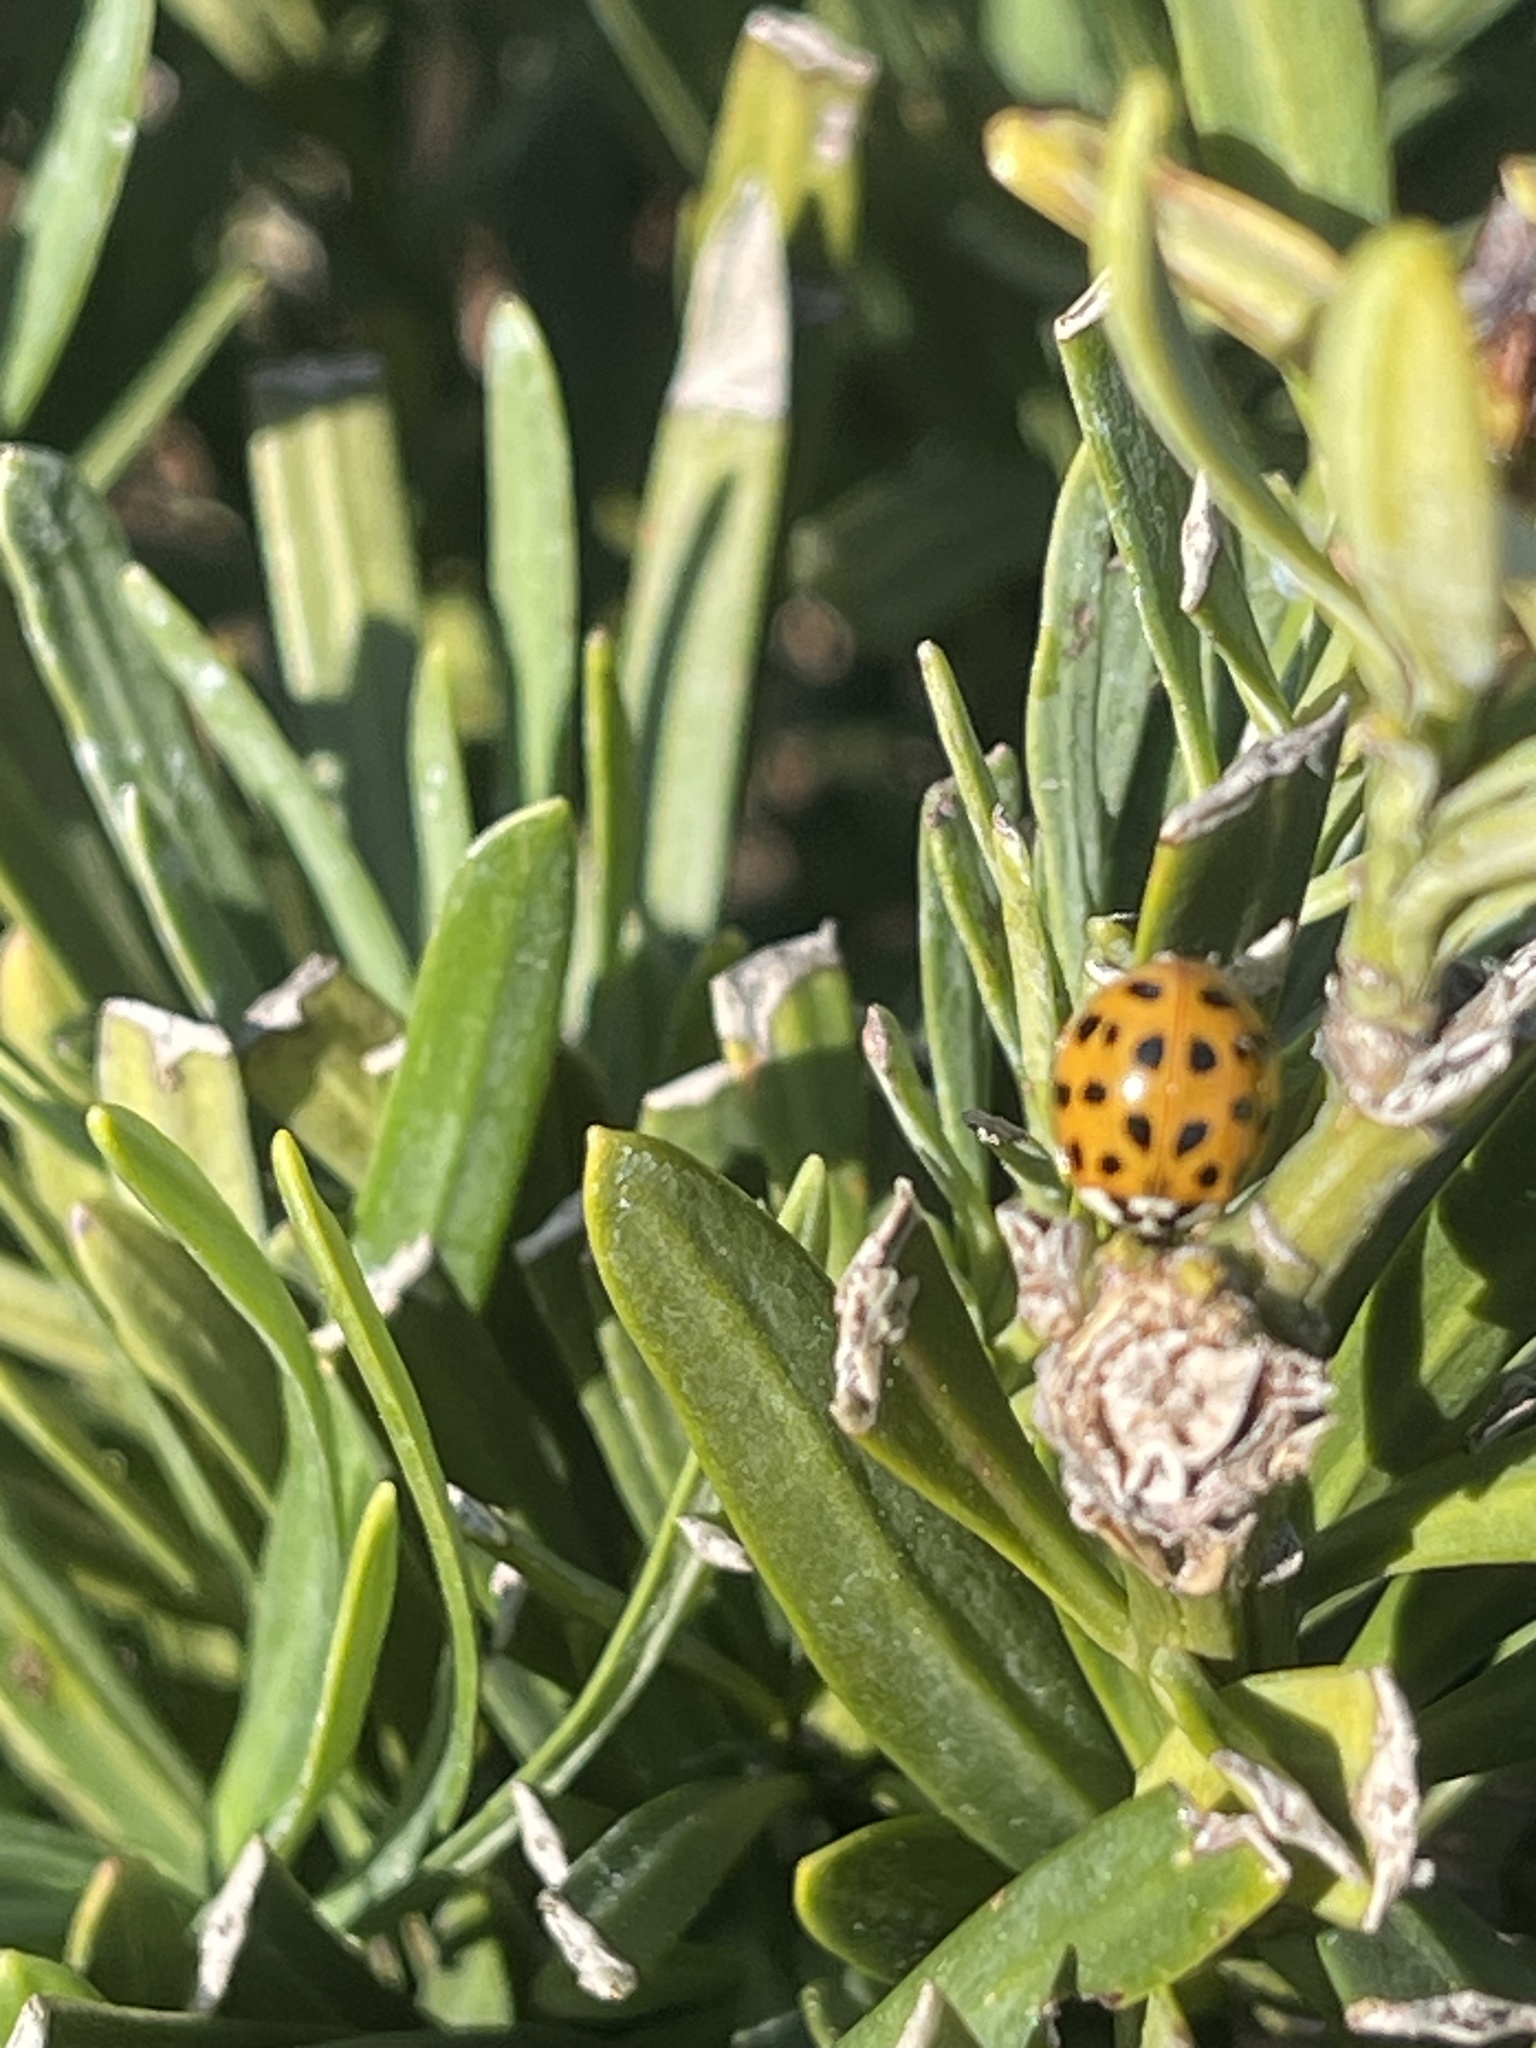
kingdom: Animalia
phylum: Arthropoda
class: Insecta
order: Coleoptera
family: Coccinellidae
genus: Harmonia
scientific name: Harmonia axyridis
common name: Harlequin ladybird
